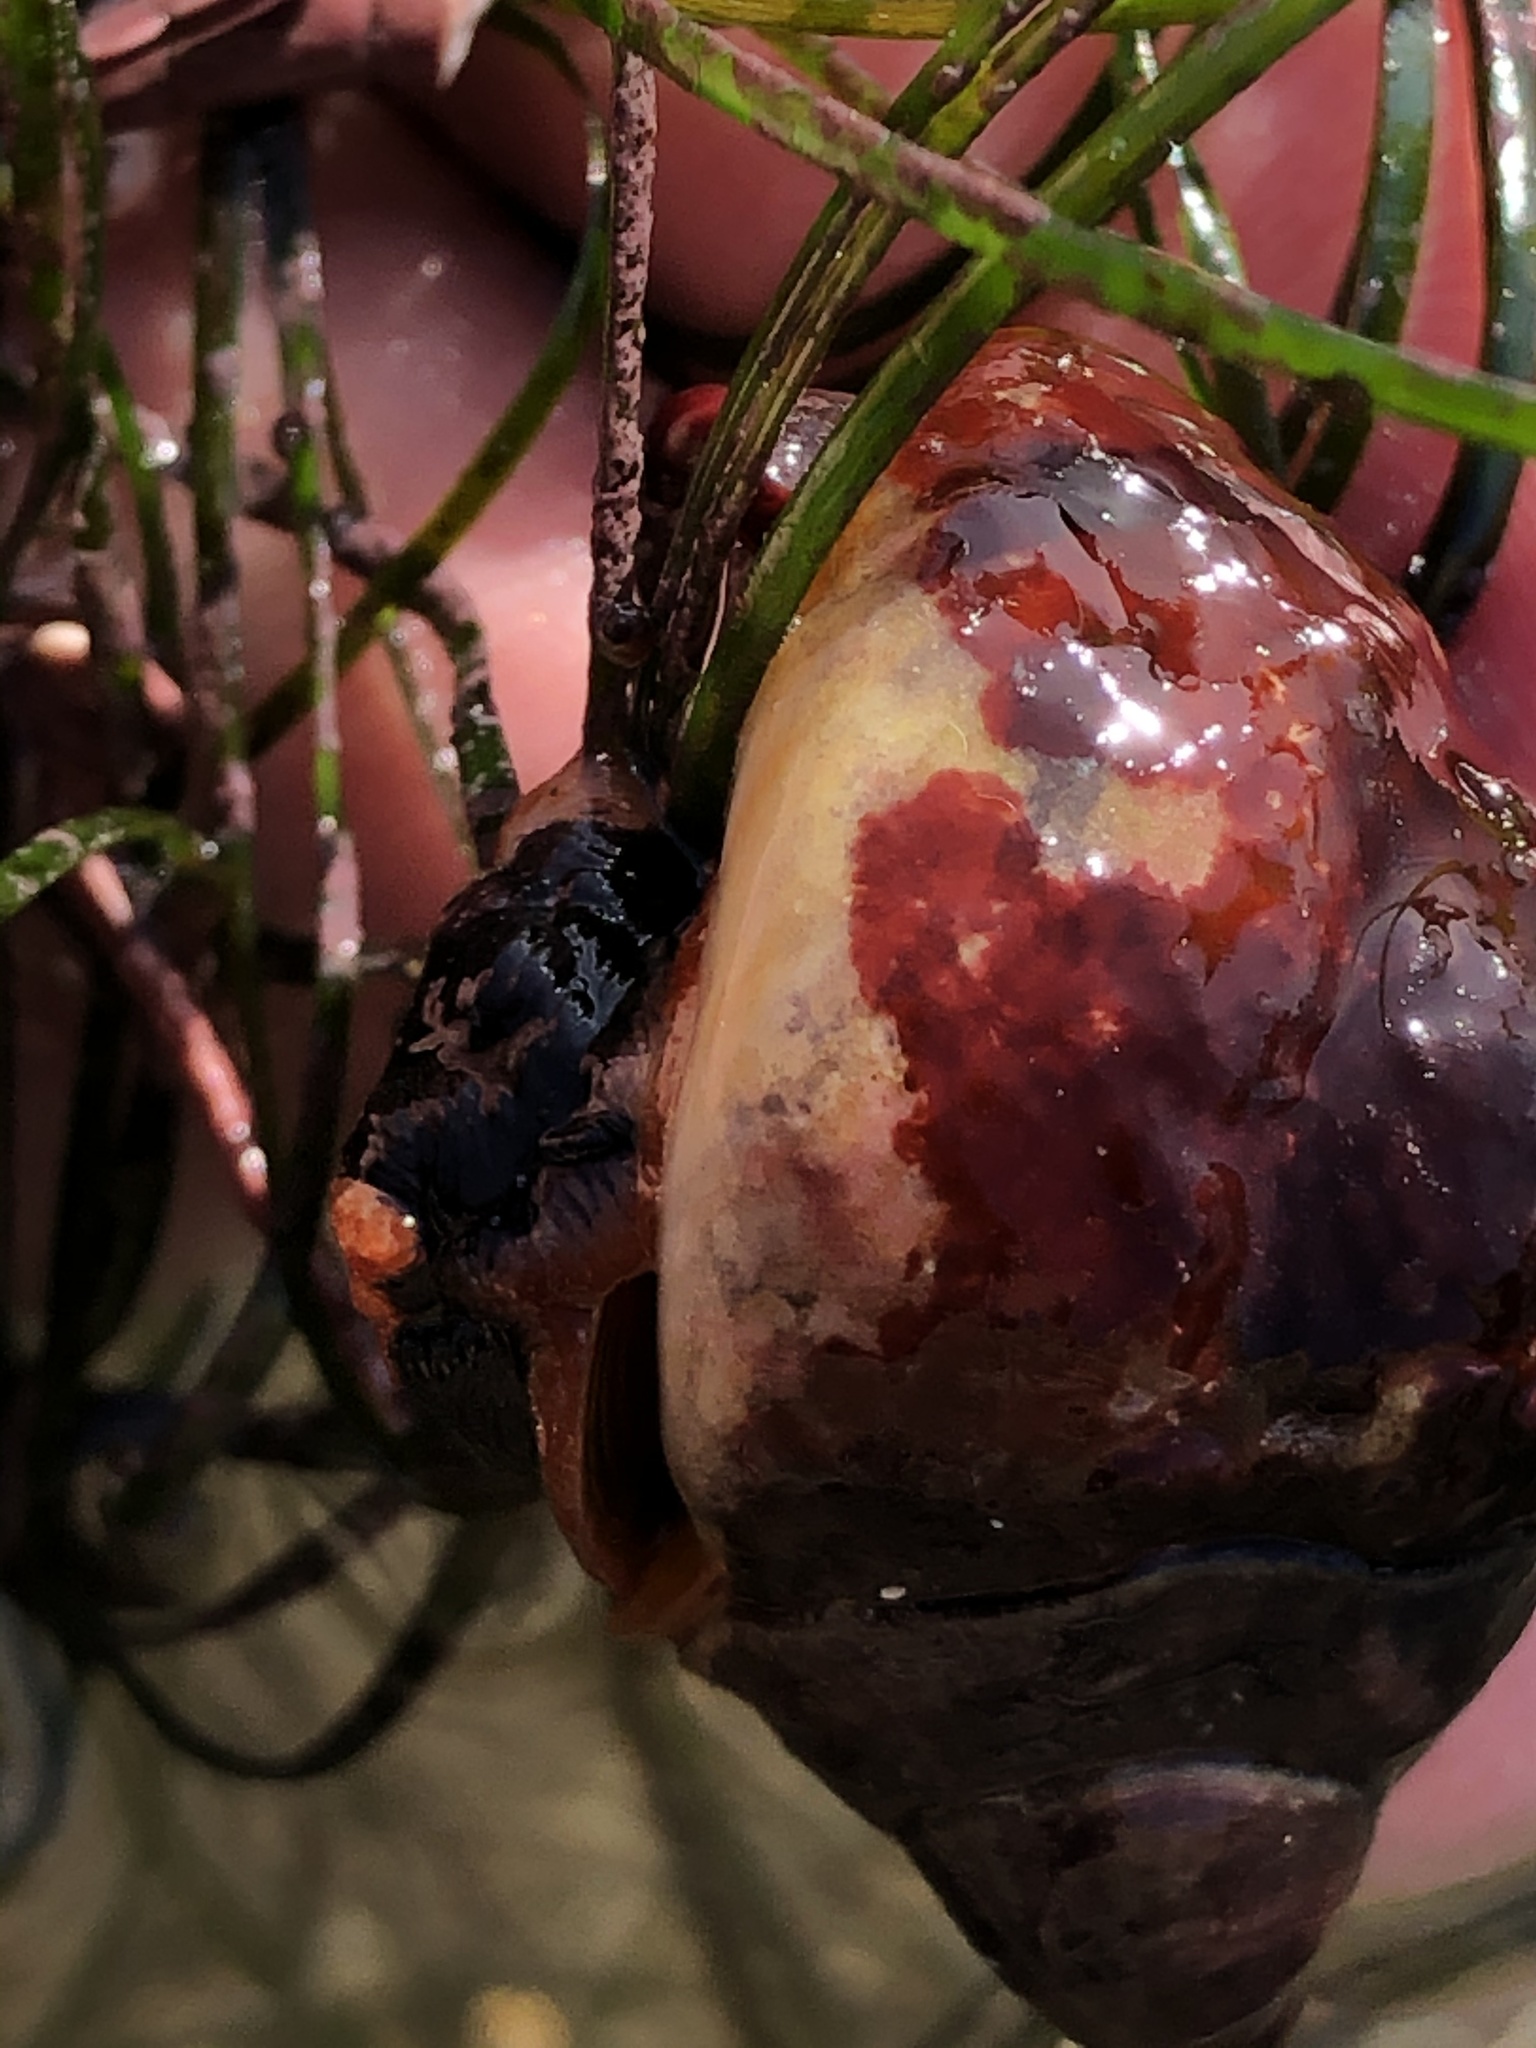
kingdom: Animalia
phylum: Mollusca
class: Gastropoda
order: Trochida
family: Tegulidae
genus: Tegula
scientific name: Tegula brunnea
